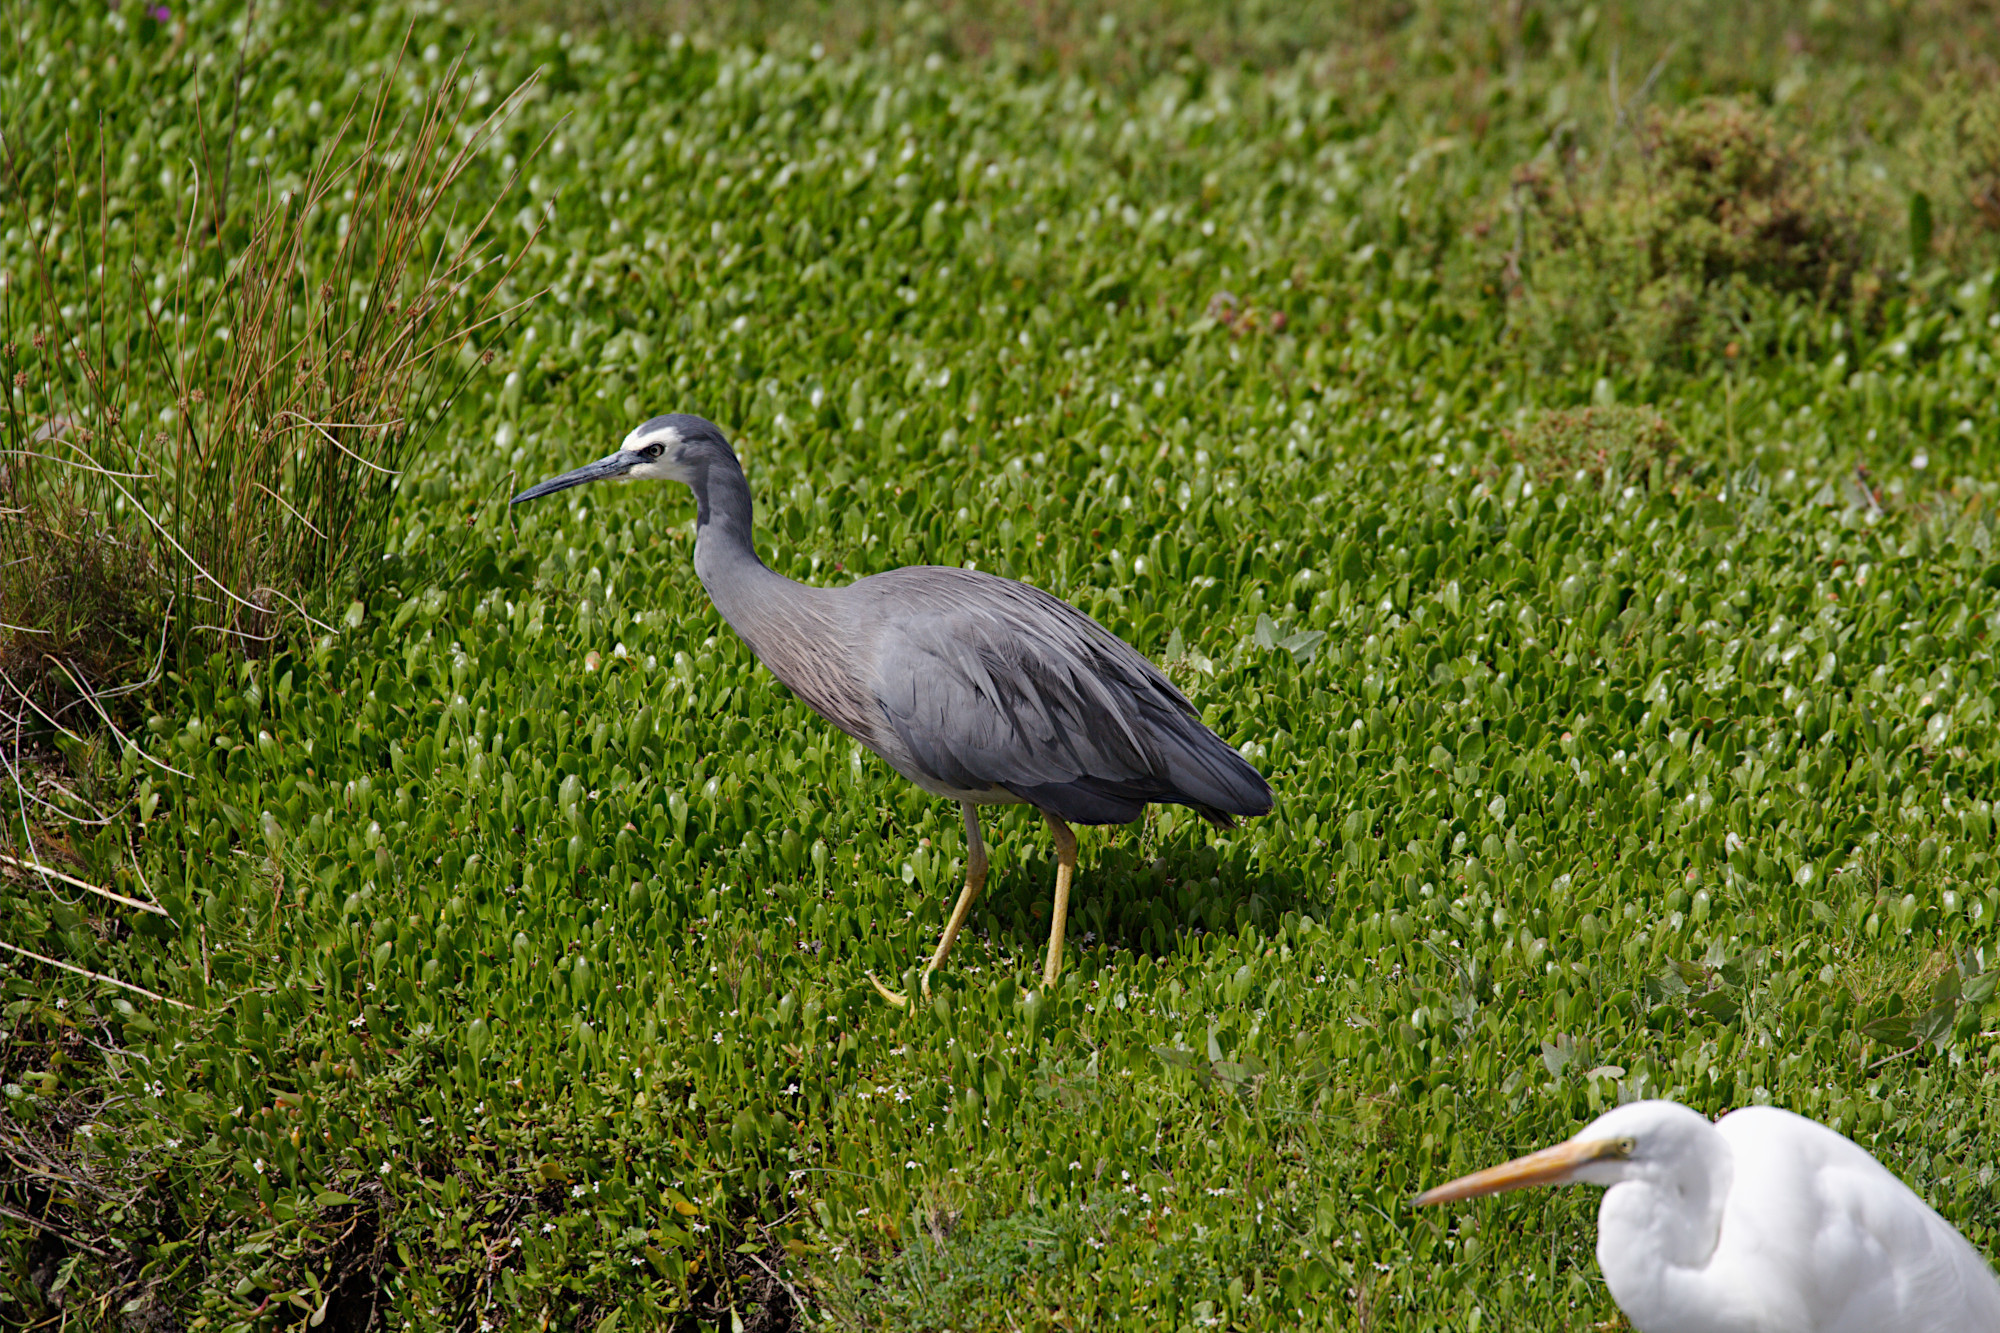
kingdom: Animalia
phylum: Chordata
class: Aves
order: Pelecaniformes
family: Ardeidae
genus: Egretta
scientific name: Egretta novaehollandiae
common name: White-faced heron
